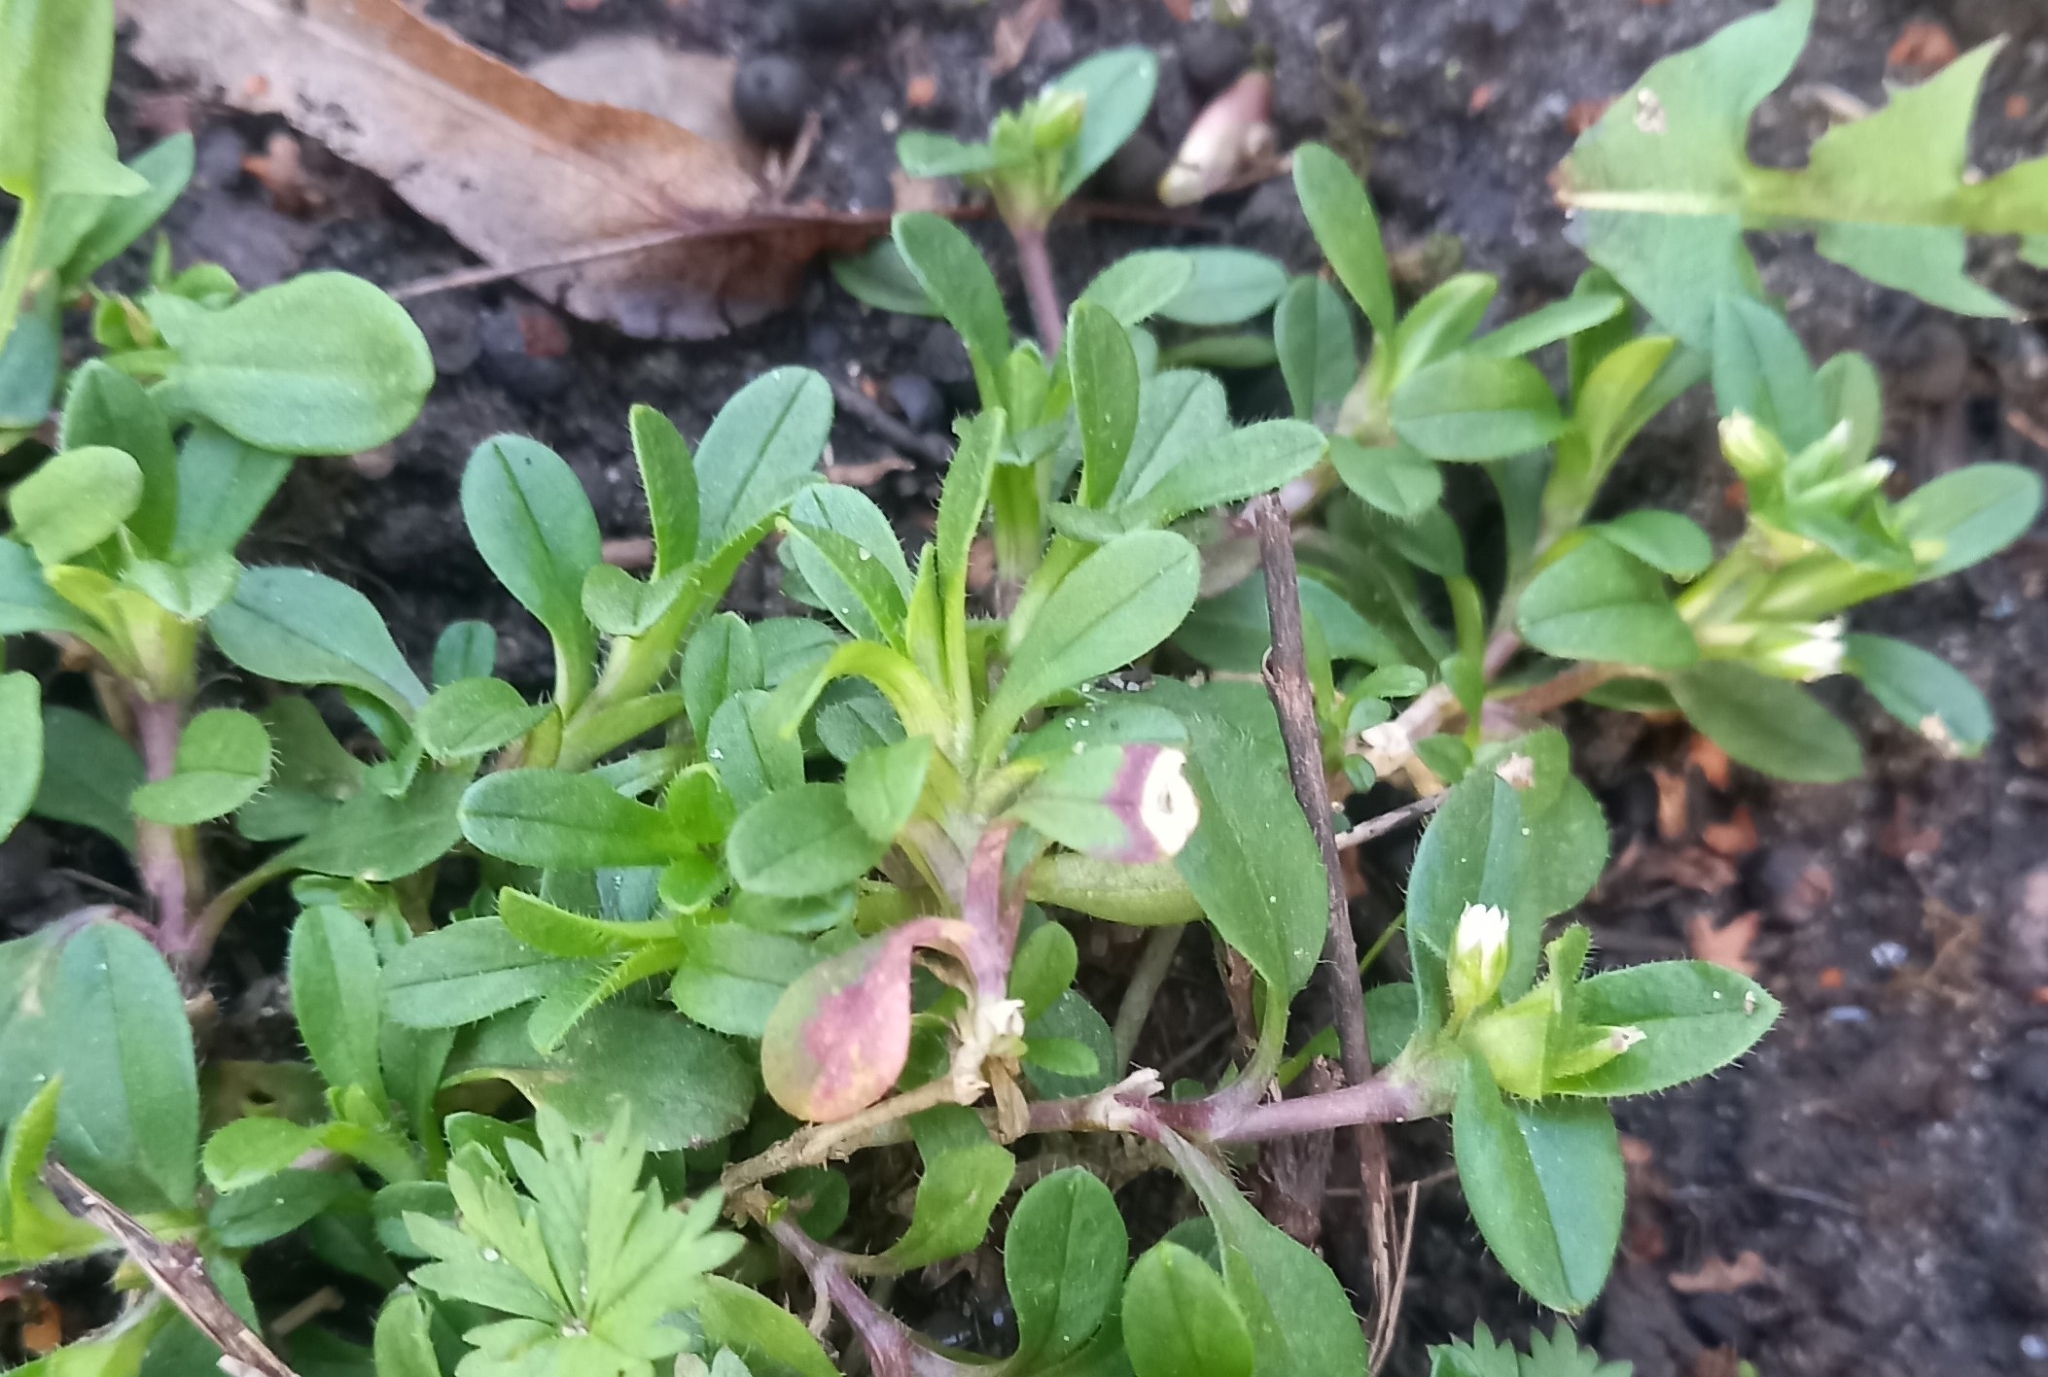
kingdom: Plantae
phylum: Tracheophyta
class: Magnoliopsida
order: Caryophyllales
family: Caryophyllaceae
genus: Cerastium
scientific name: Cerastium holosteoides
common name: Big chickweed
